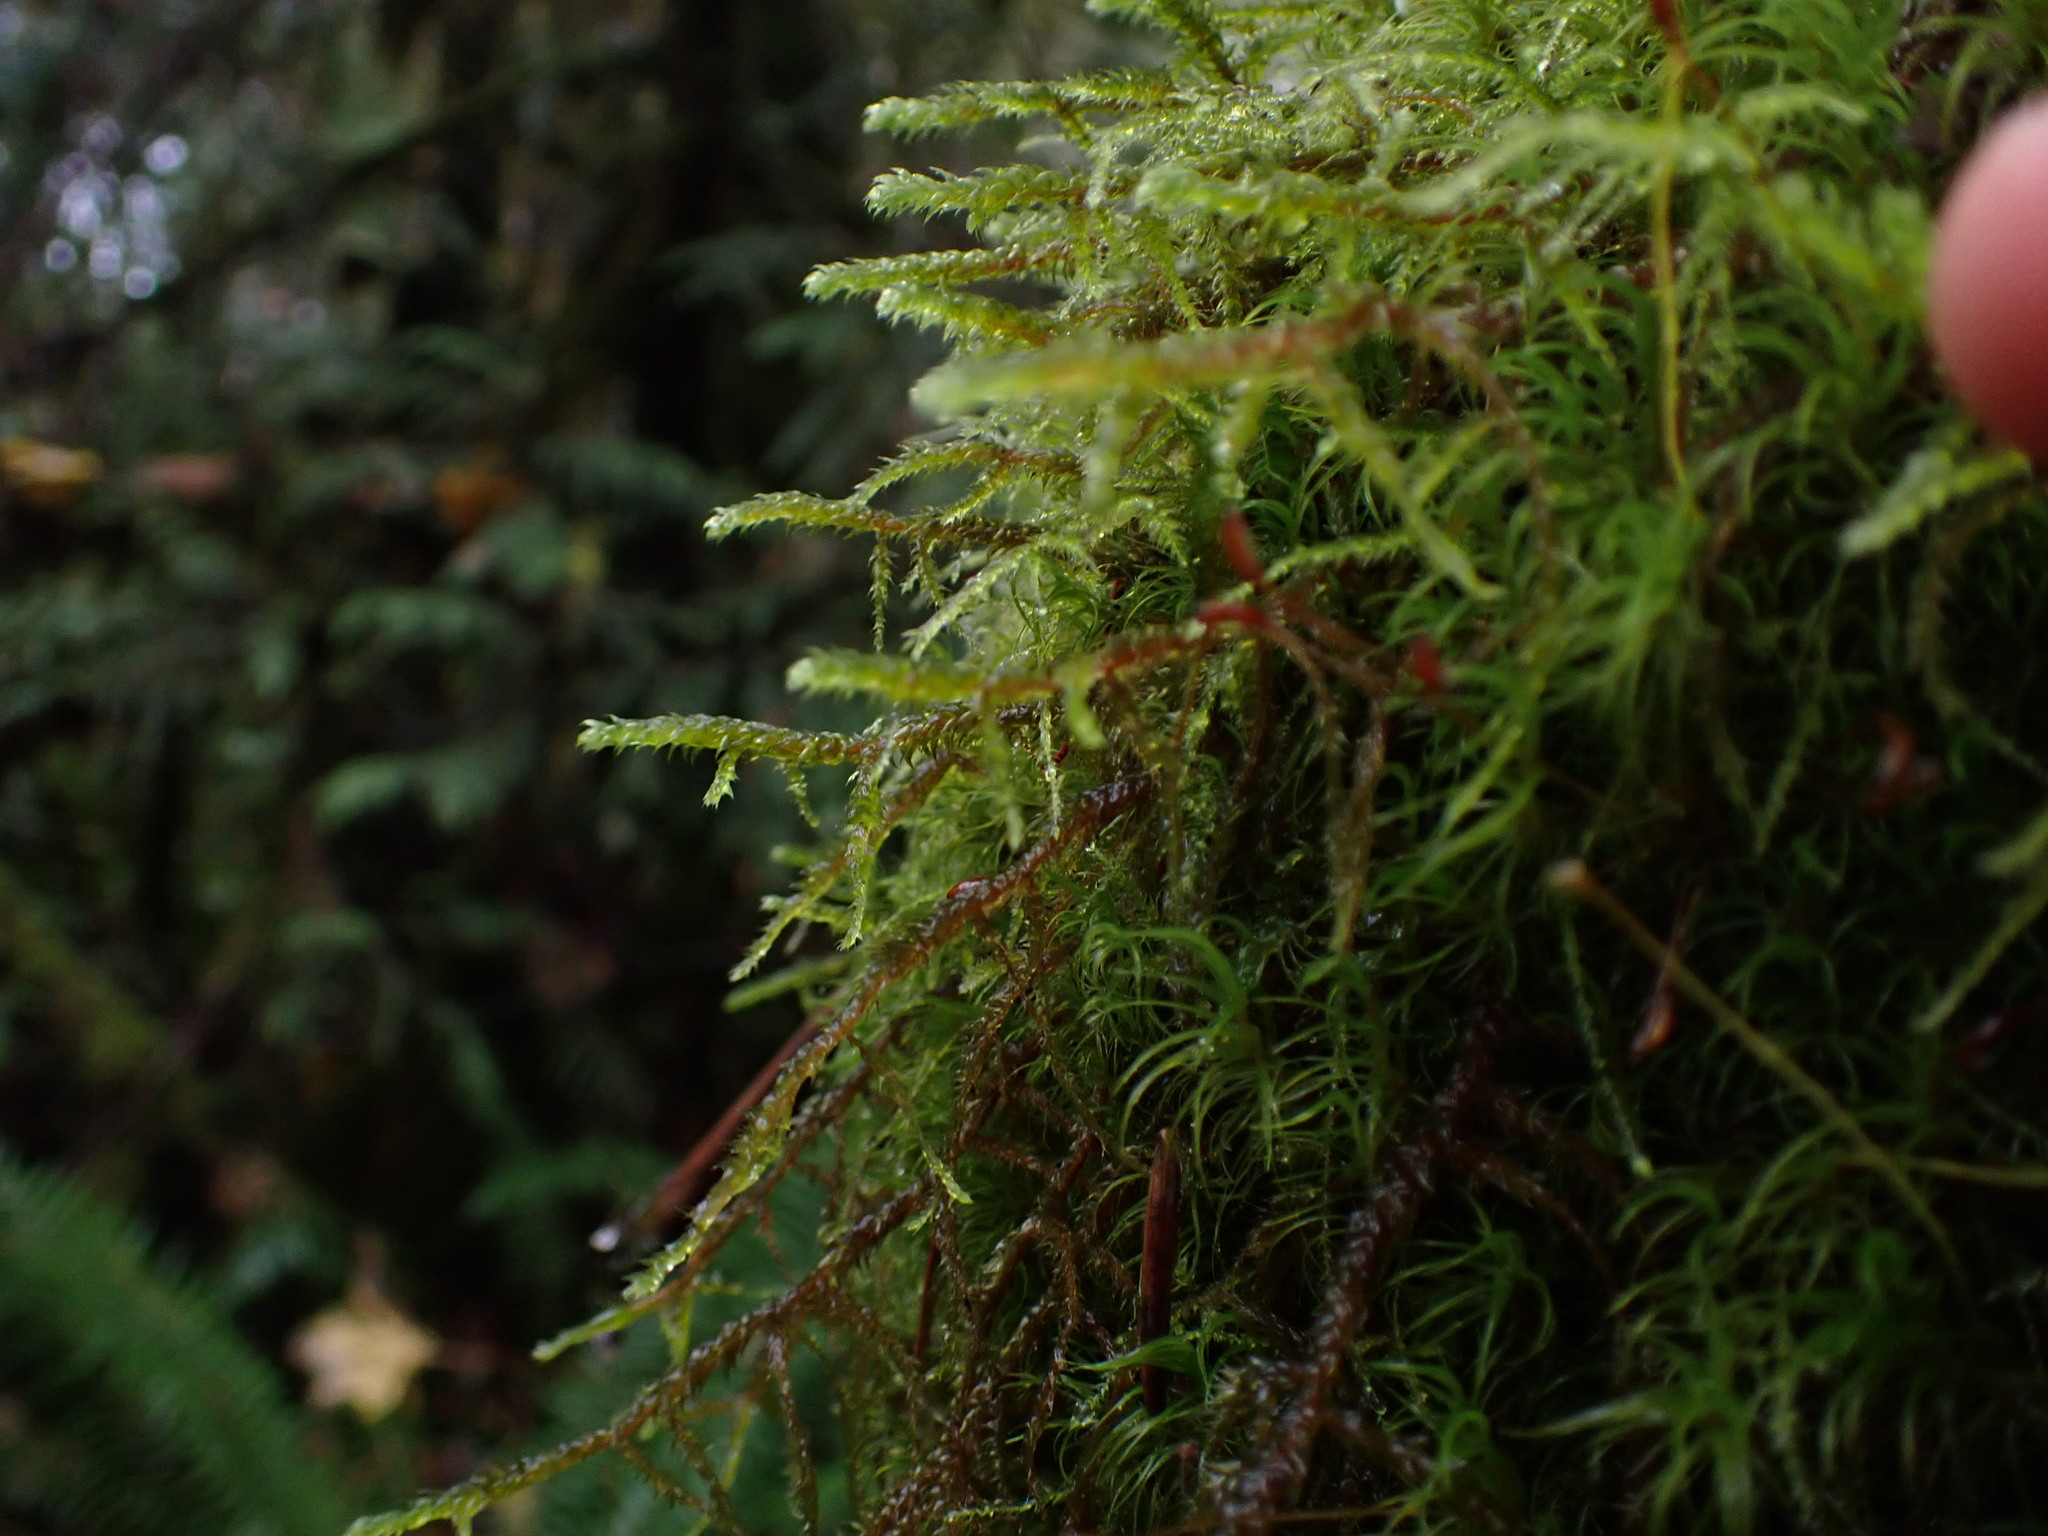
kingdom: Plantae
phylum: Bryophyta
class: Bryopsida
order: Hypnales
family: Antitrichiaceae
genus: Antitrichia
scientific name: Antitrichia curtipendula
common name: Pendulous wing-moss
